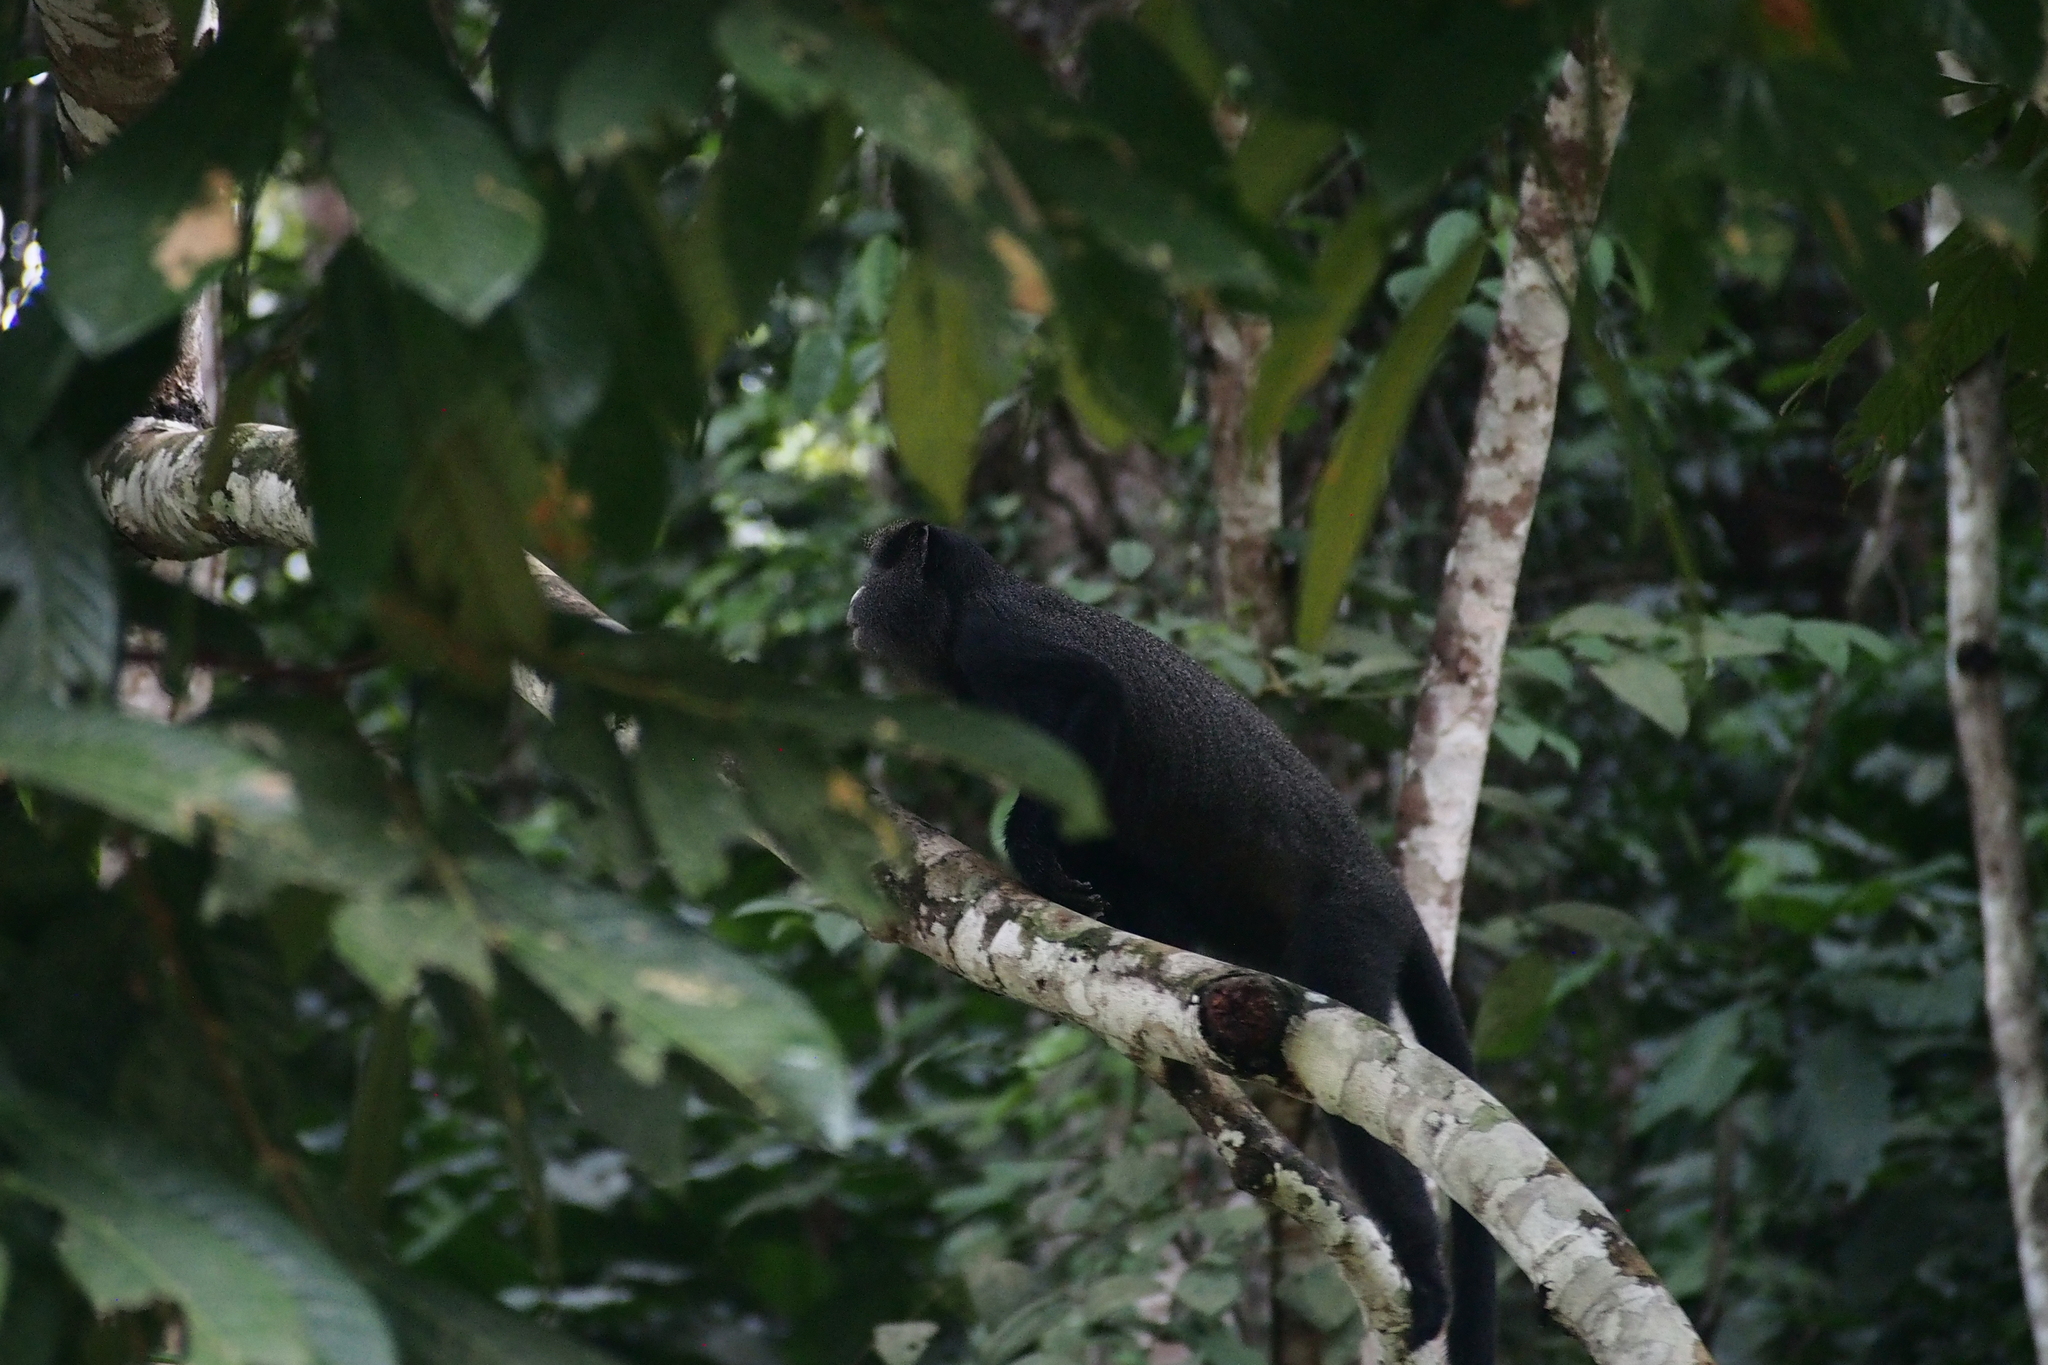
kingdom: Animalia
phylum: Chordata
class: Mammalia
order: Primates
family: Cercopithecidae
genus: Cercopithecus
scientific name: Cercopithecus nictitans
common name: Greater spot-nosed monkey
